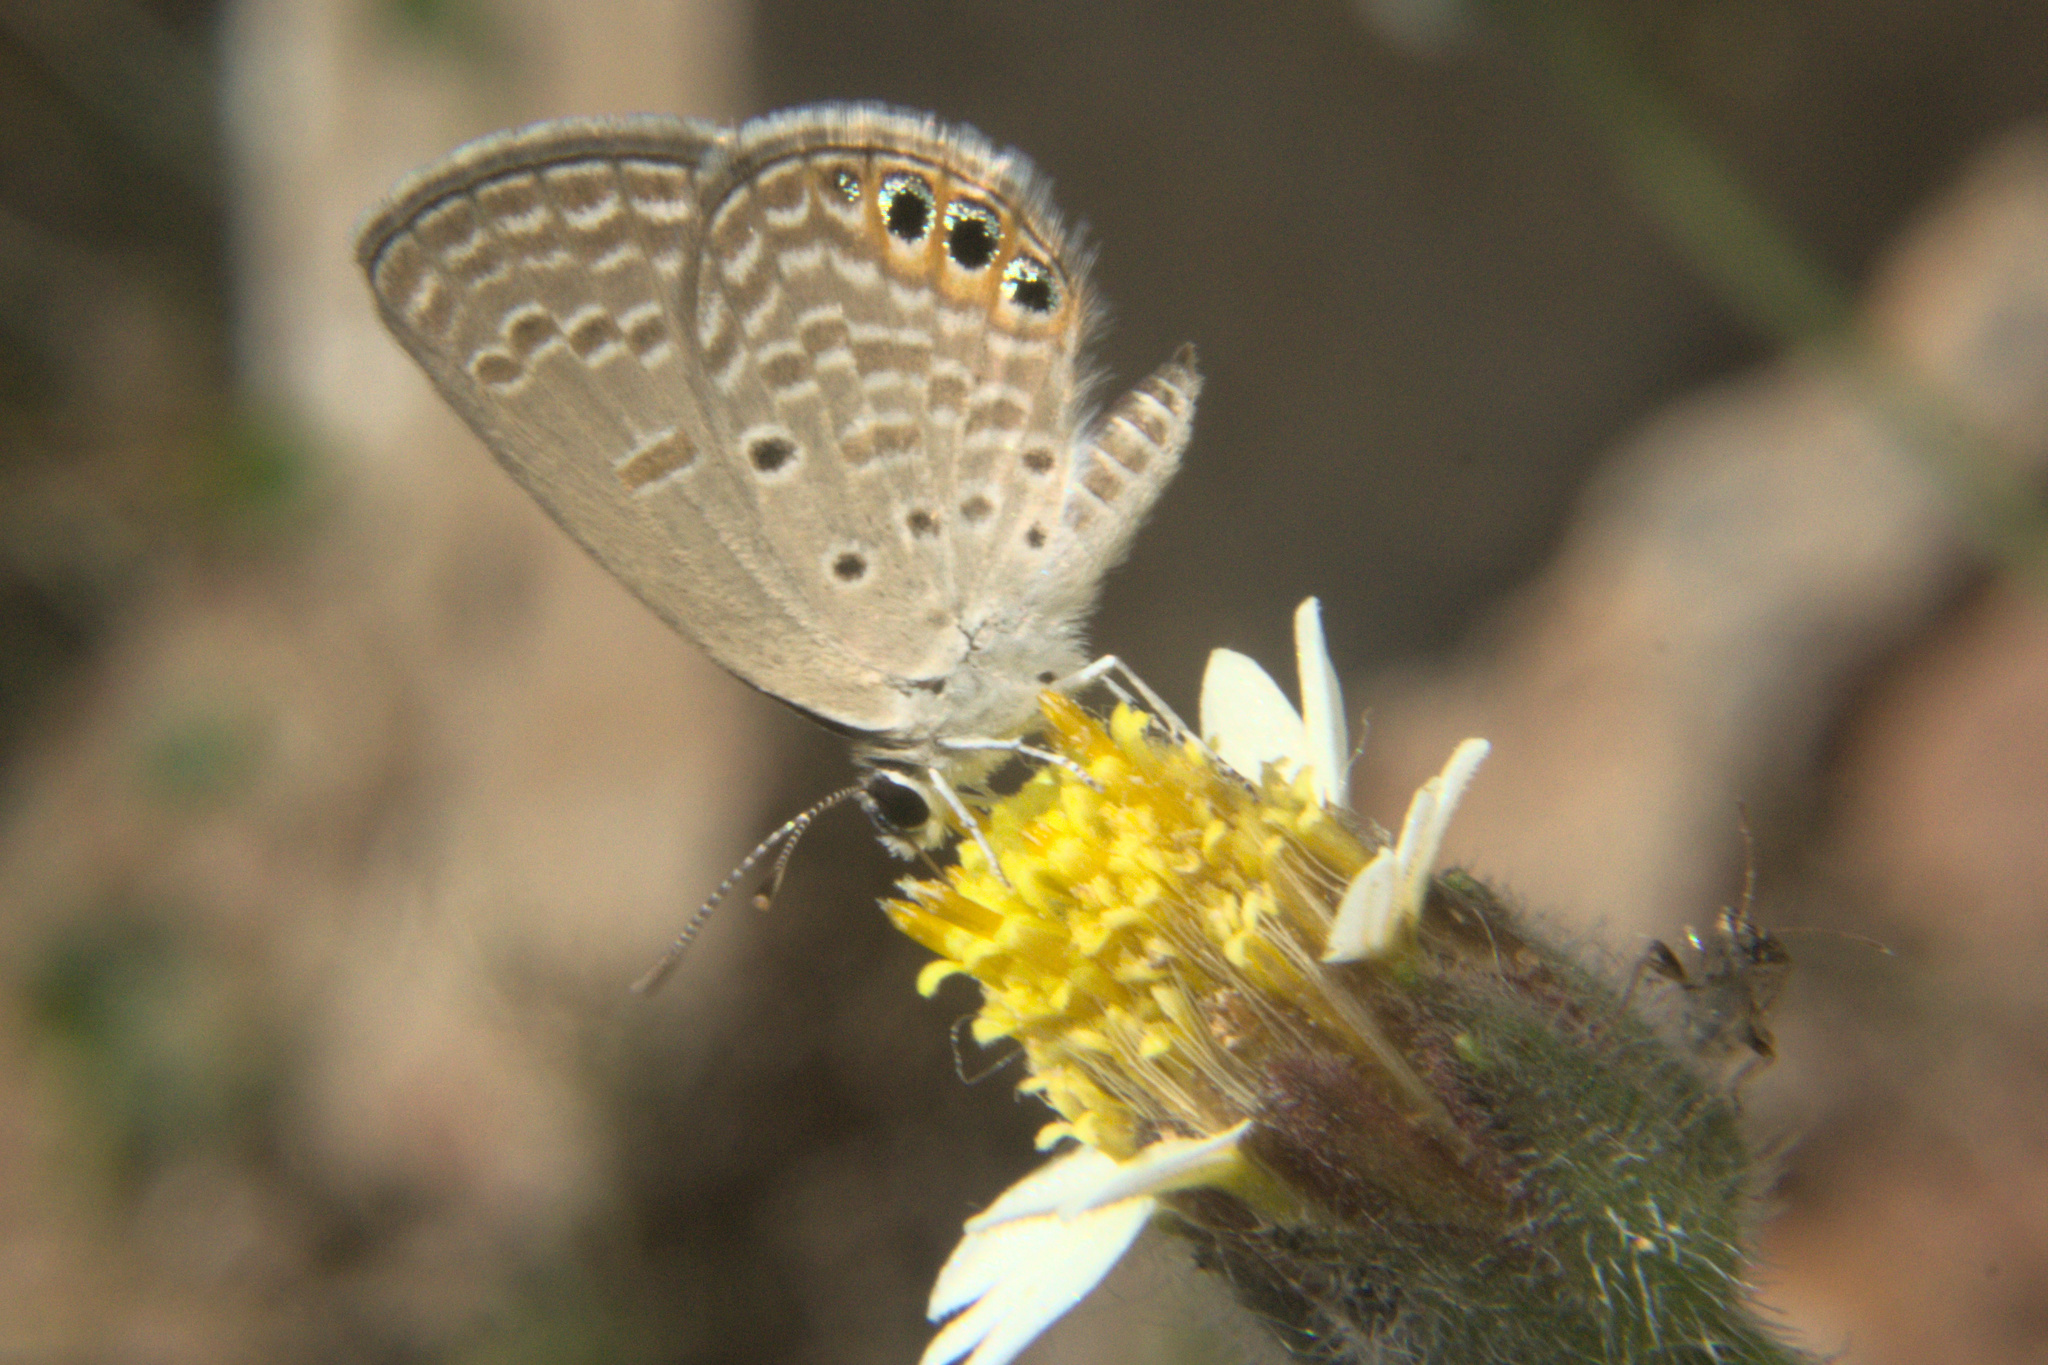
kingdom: Animalia
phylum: Arthropoda
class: Insecta
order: Lepidoptera
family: Lycaenidae
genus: Freyeria
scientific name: Freyeria trochylus
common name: Grass jewel
